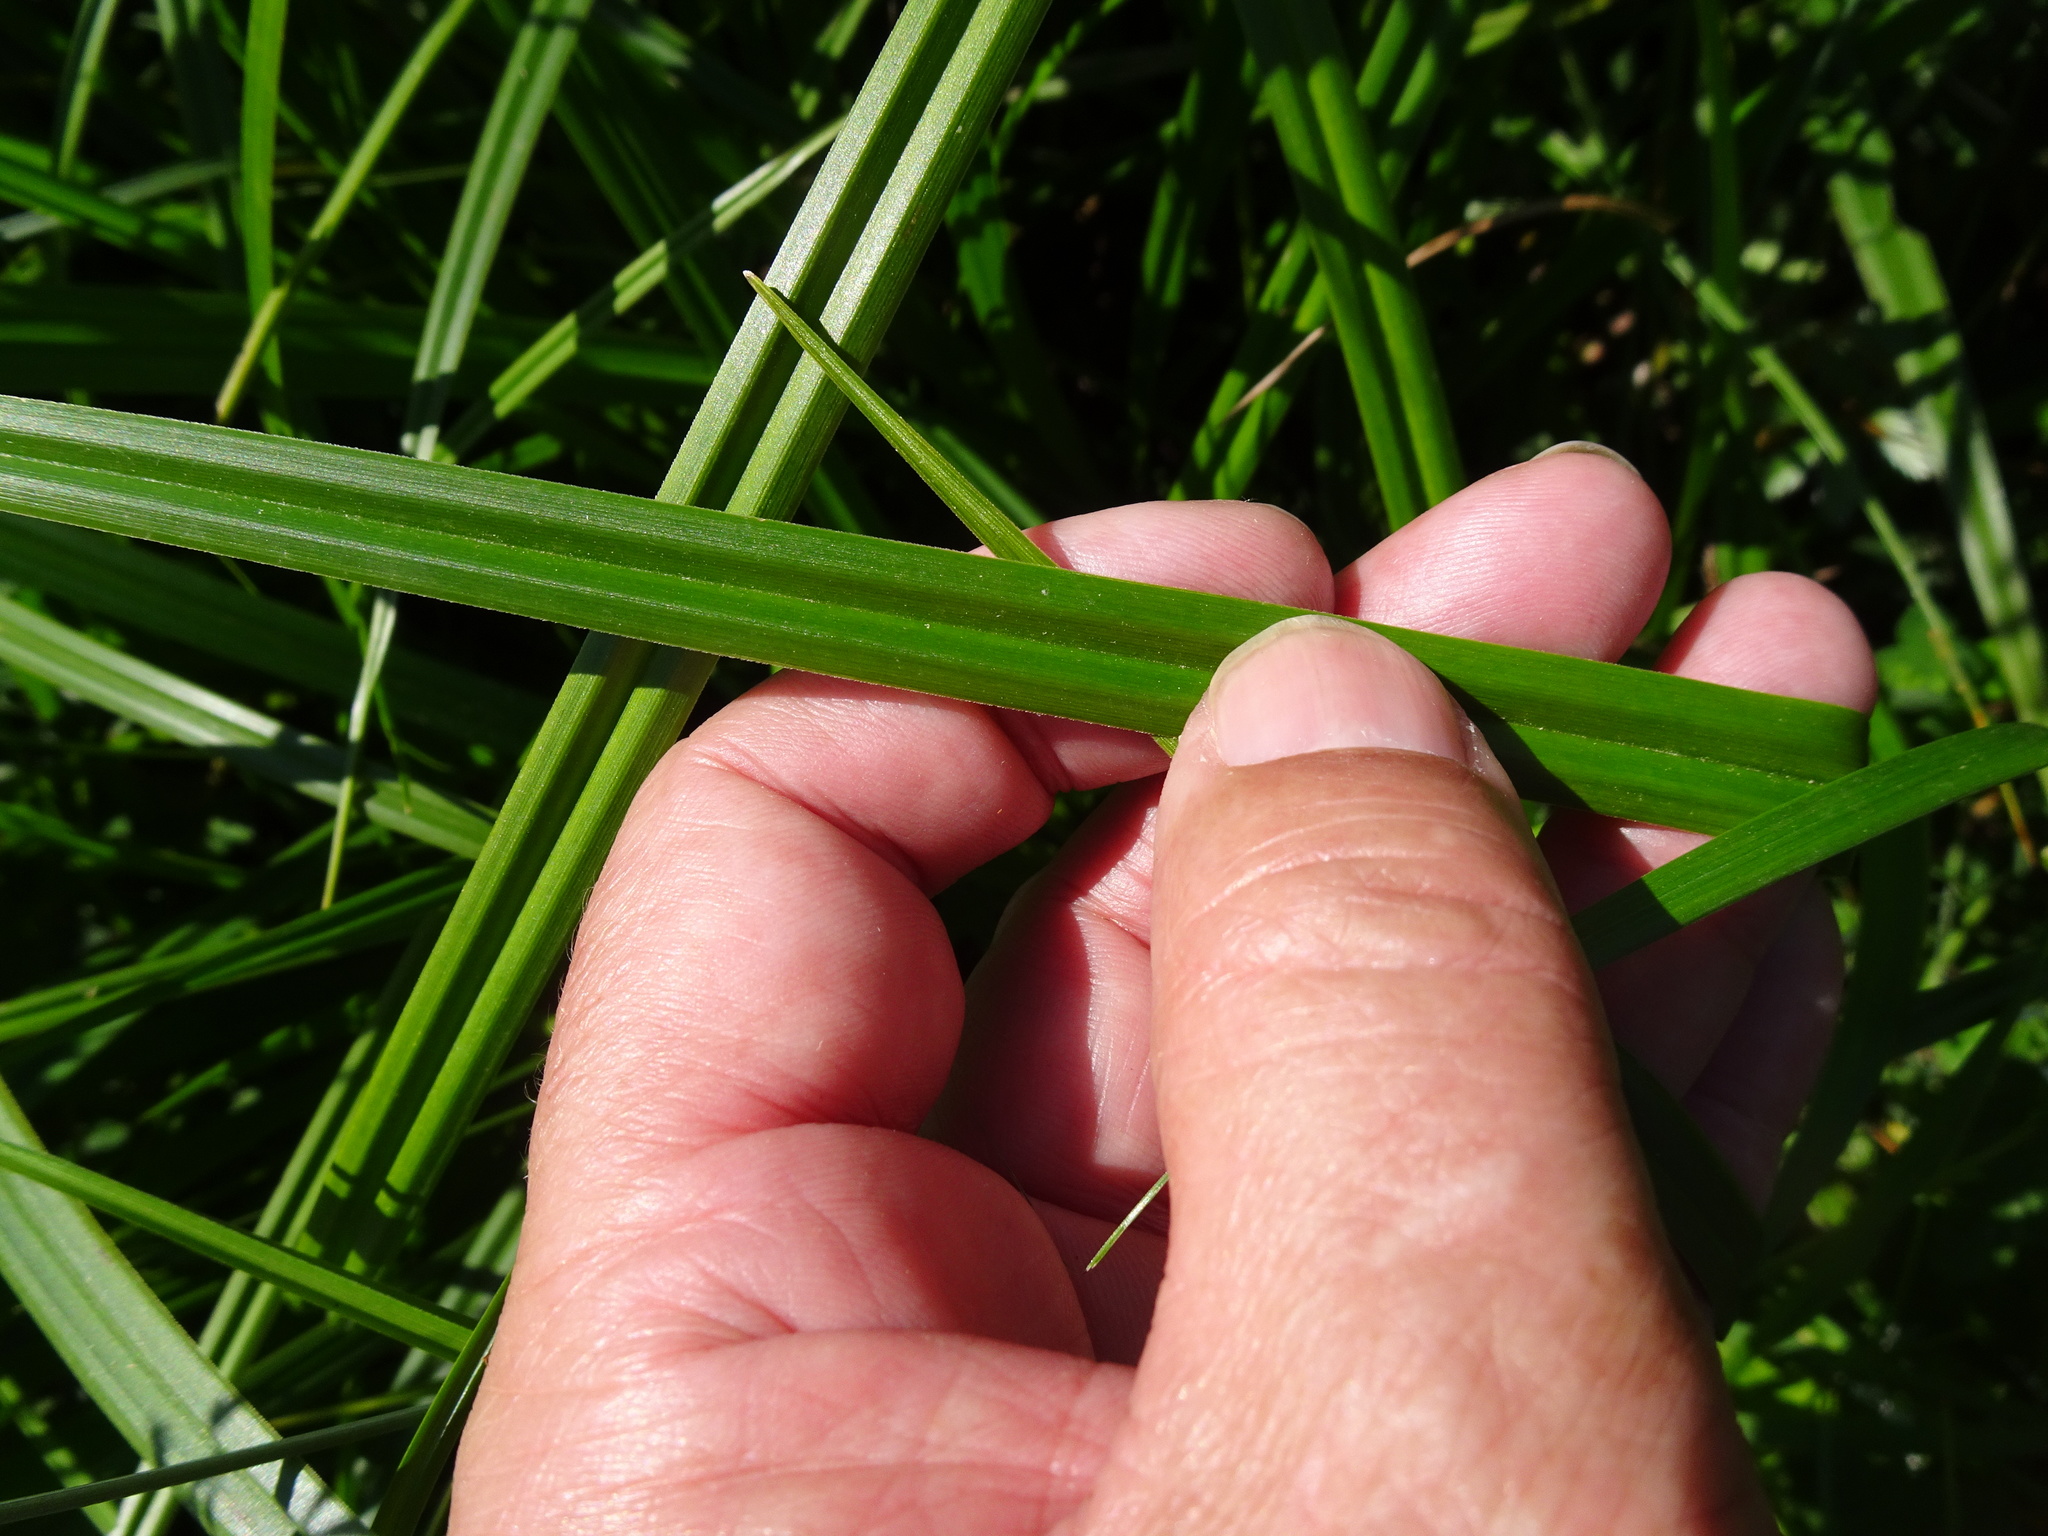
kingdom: Plantae
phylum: Tracheophyta
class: Liliopsida
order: Poales
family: Cyperaceae
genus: Scirpus
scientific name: Scirpus sylvaticus
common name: Wood club-rush
